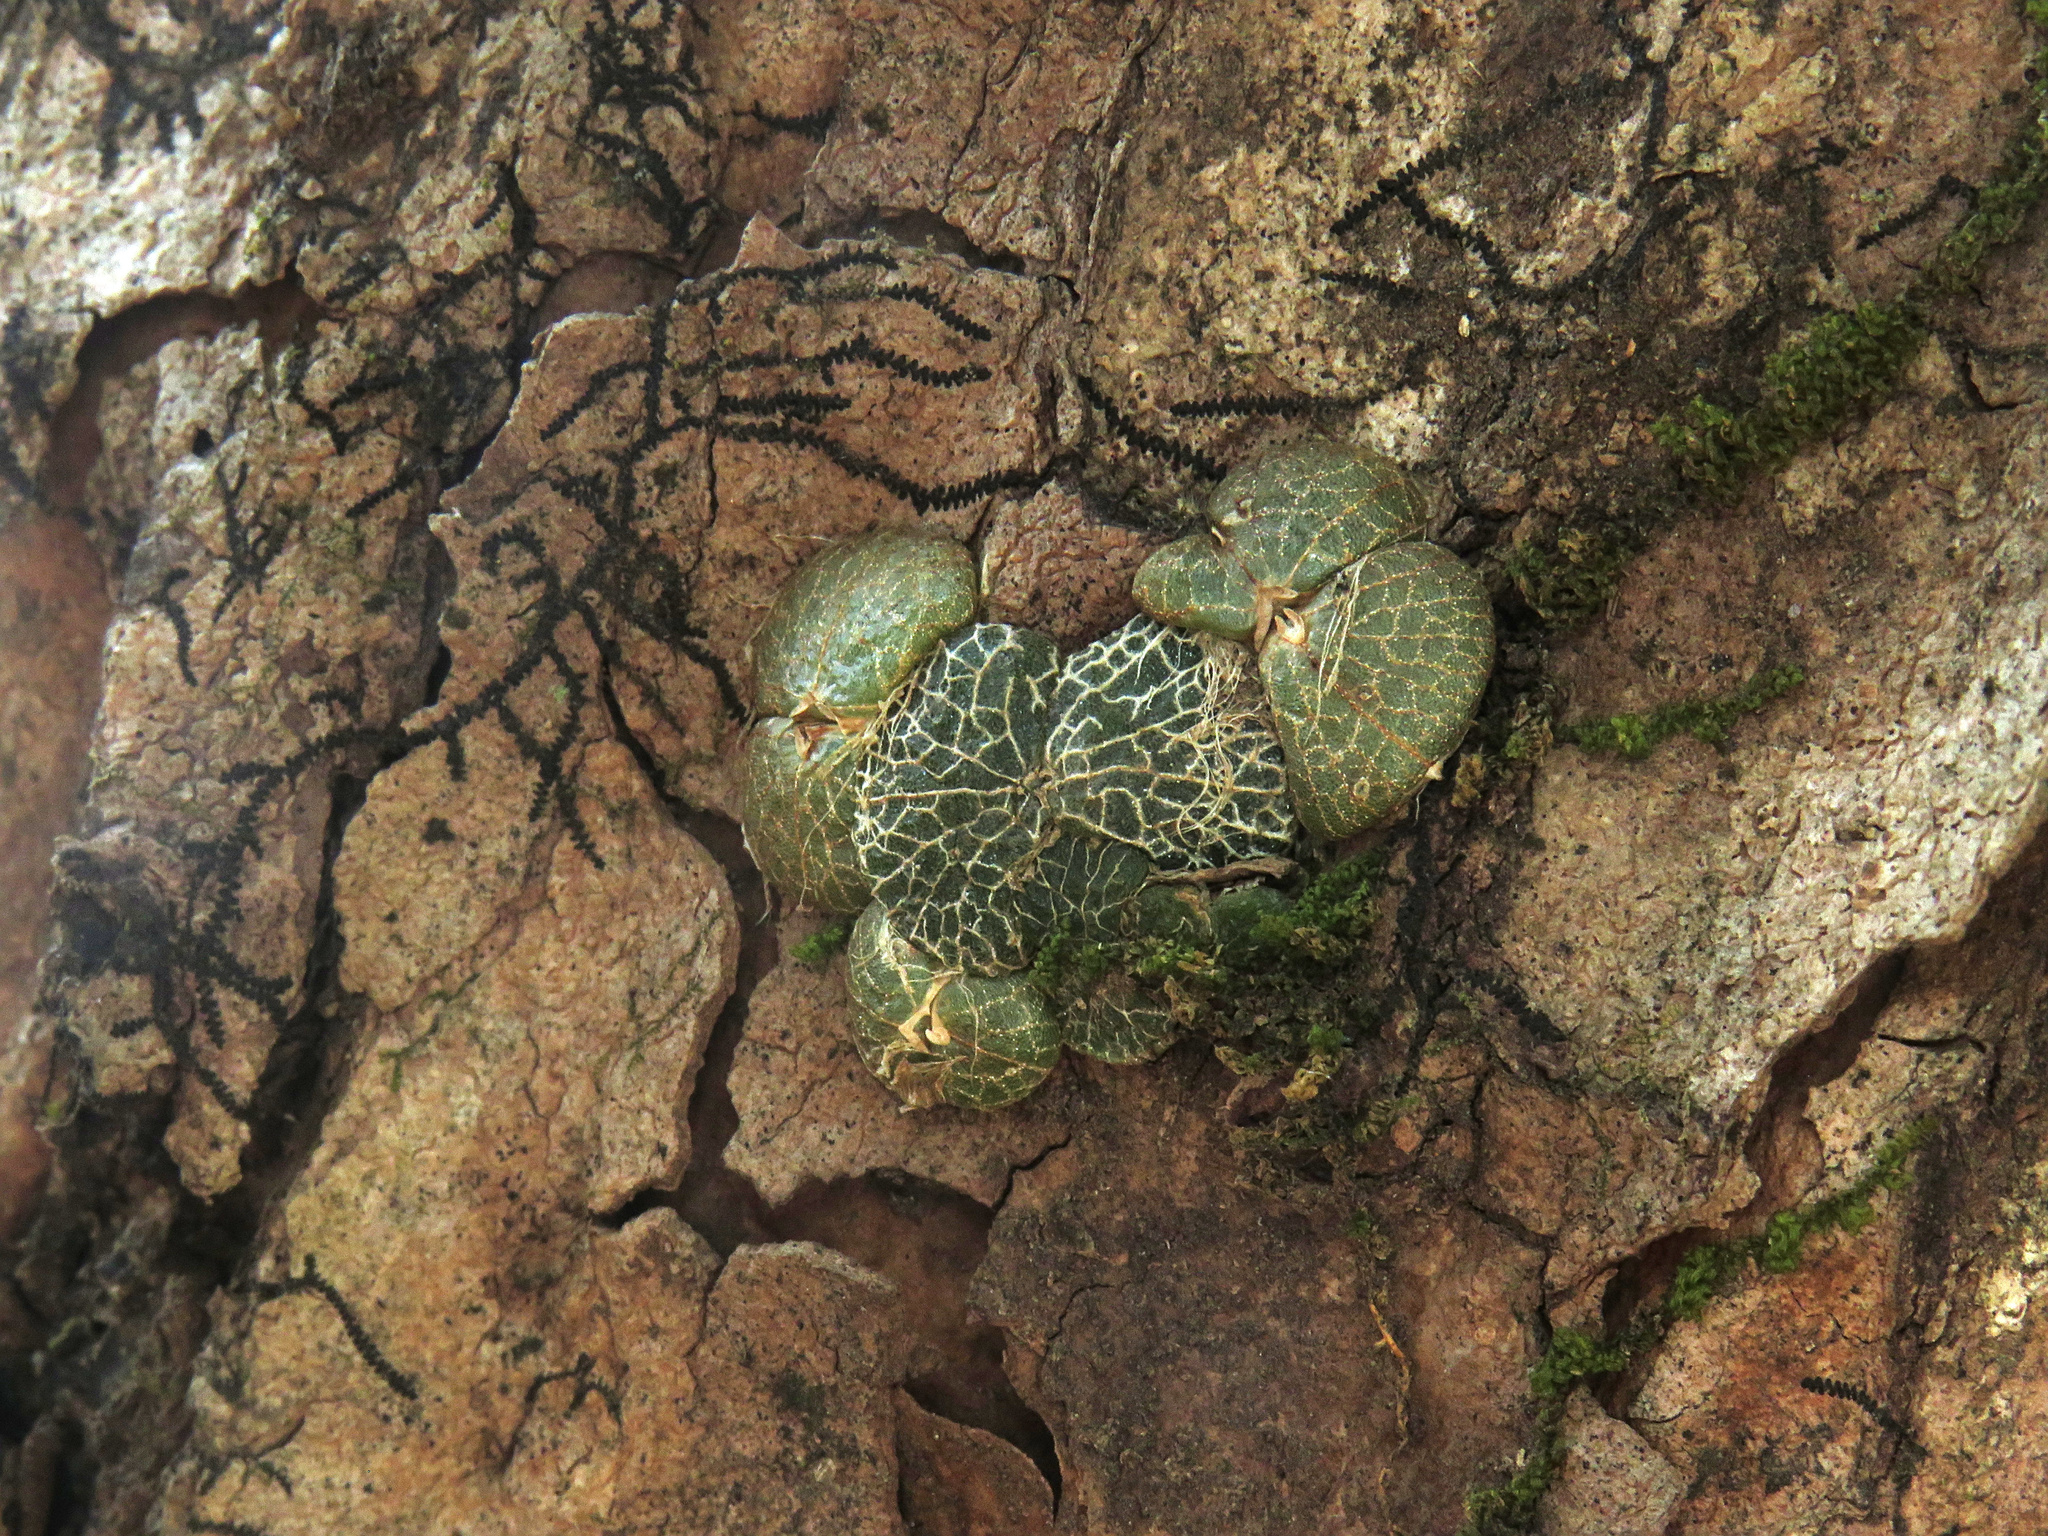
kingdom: Plantae
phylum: Tracheophyta
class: Liliopsida
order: Asparagales
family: Orchidaceae
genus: Porpax
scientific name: Porpax reticulata
